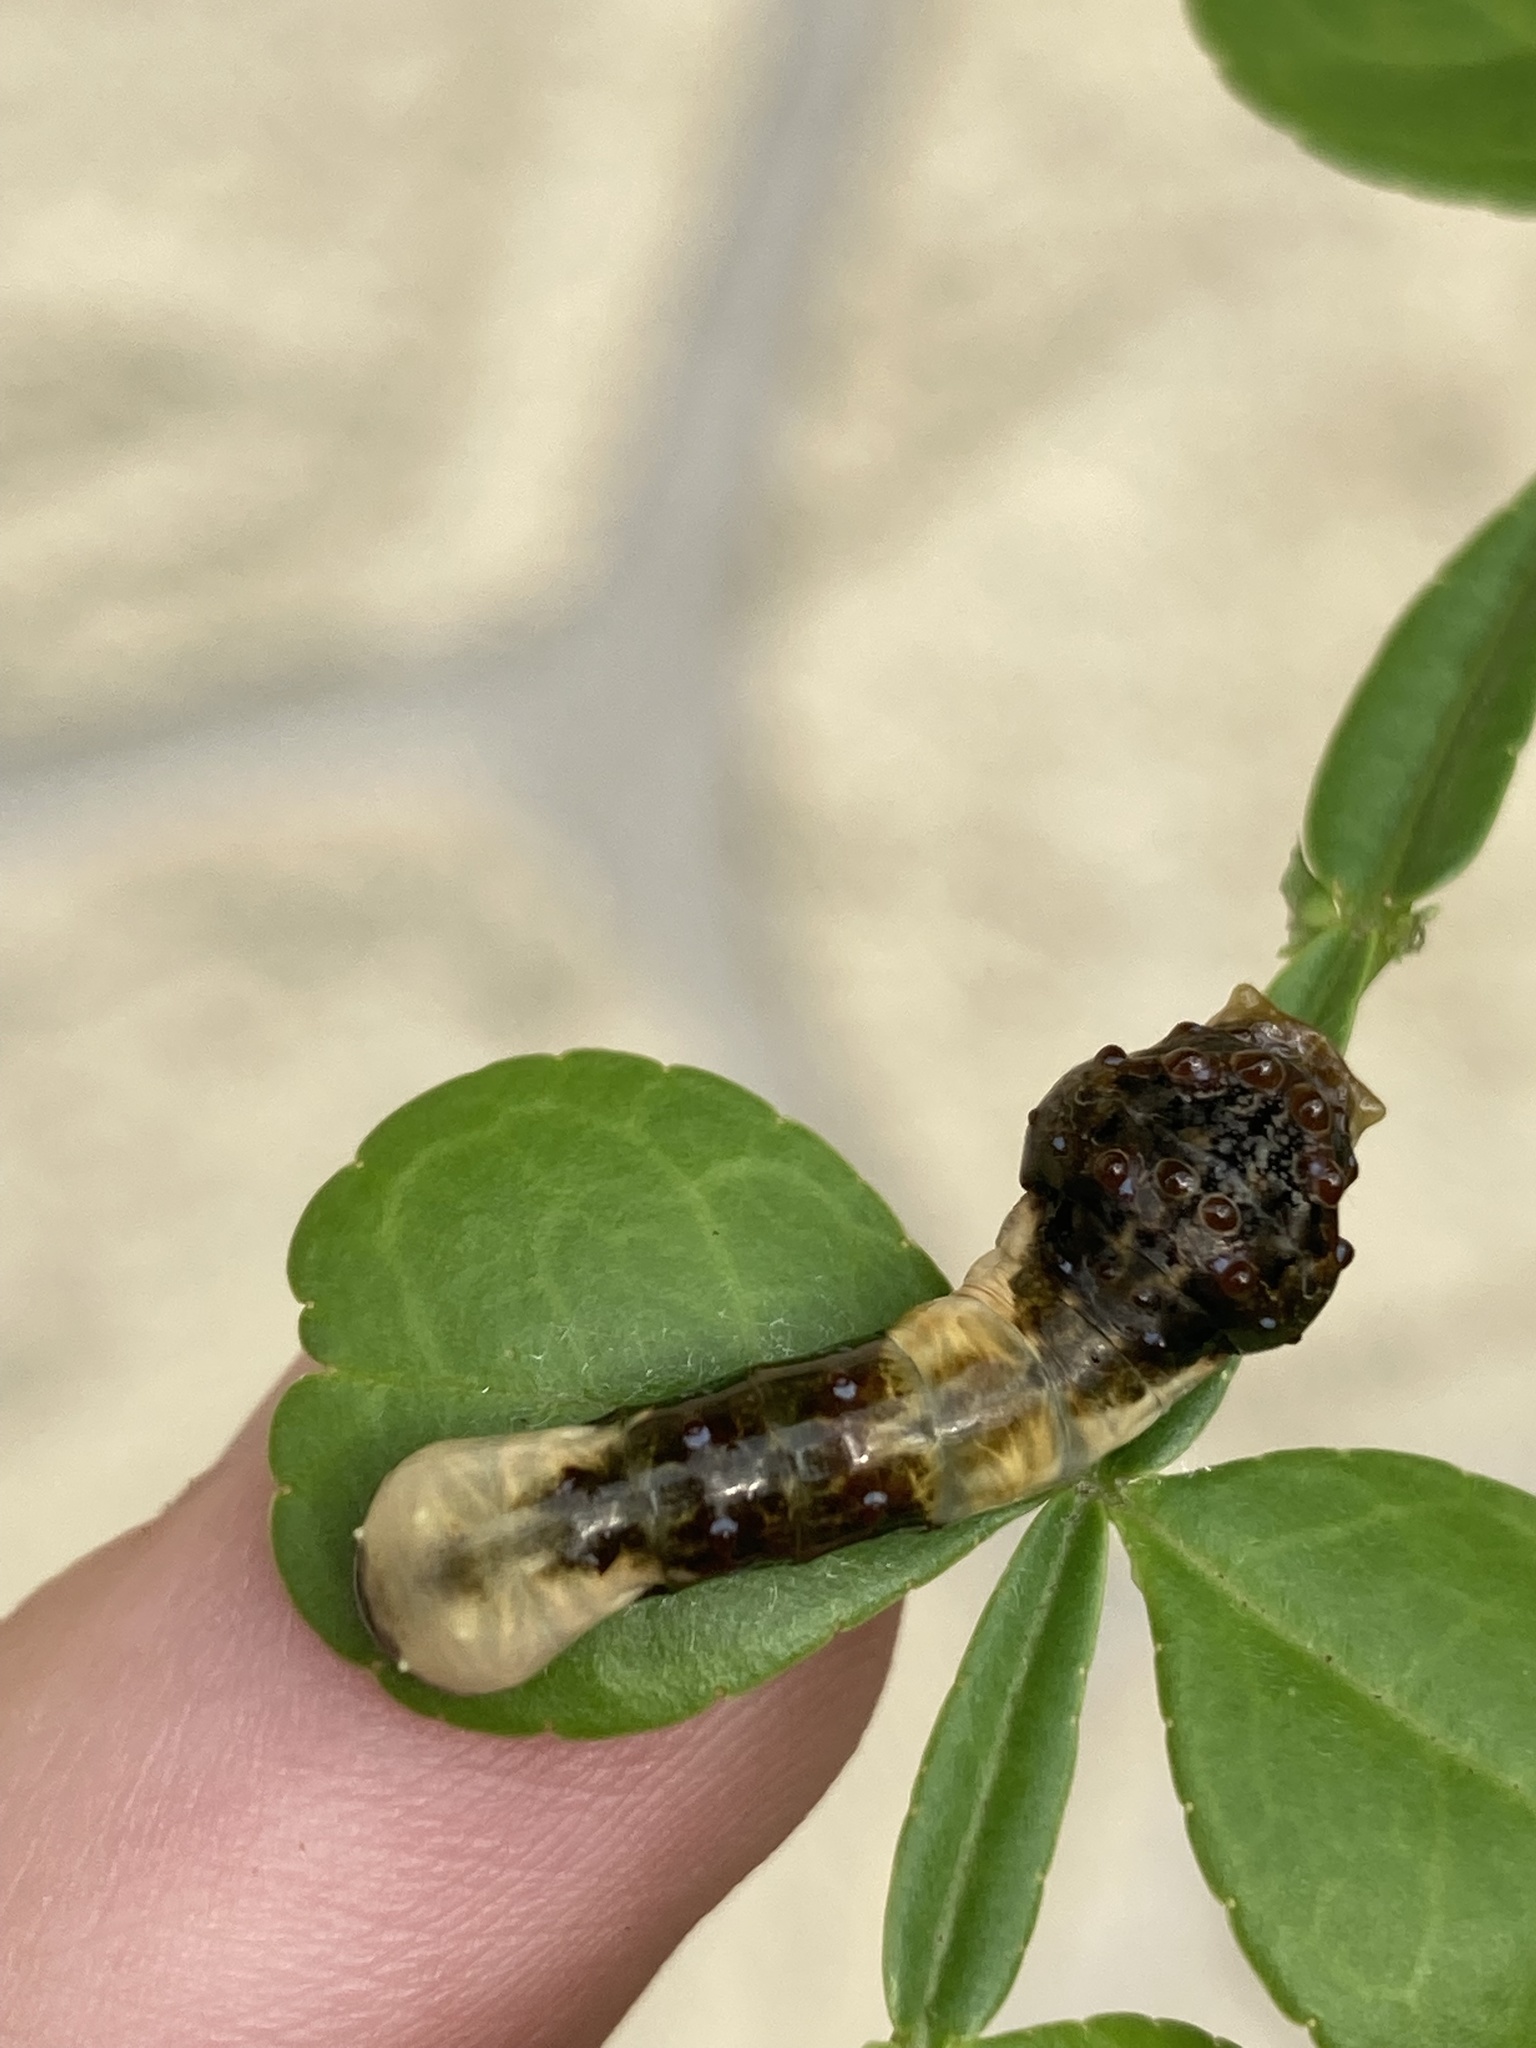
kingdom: Animalia
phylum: Arthropoda
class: Insecta
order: Lepidoptera
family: Papilionidae
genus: Papilio
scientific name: Papilio cresphontes
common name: Giant swallowtail
